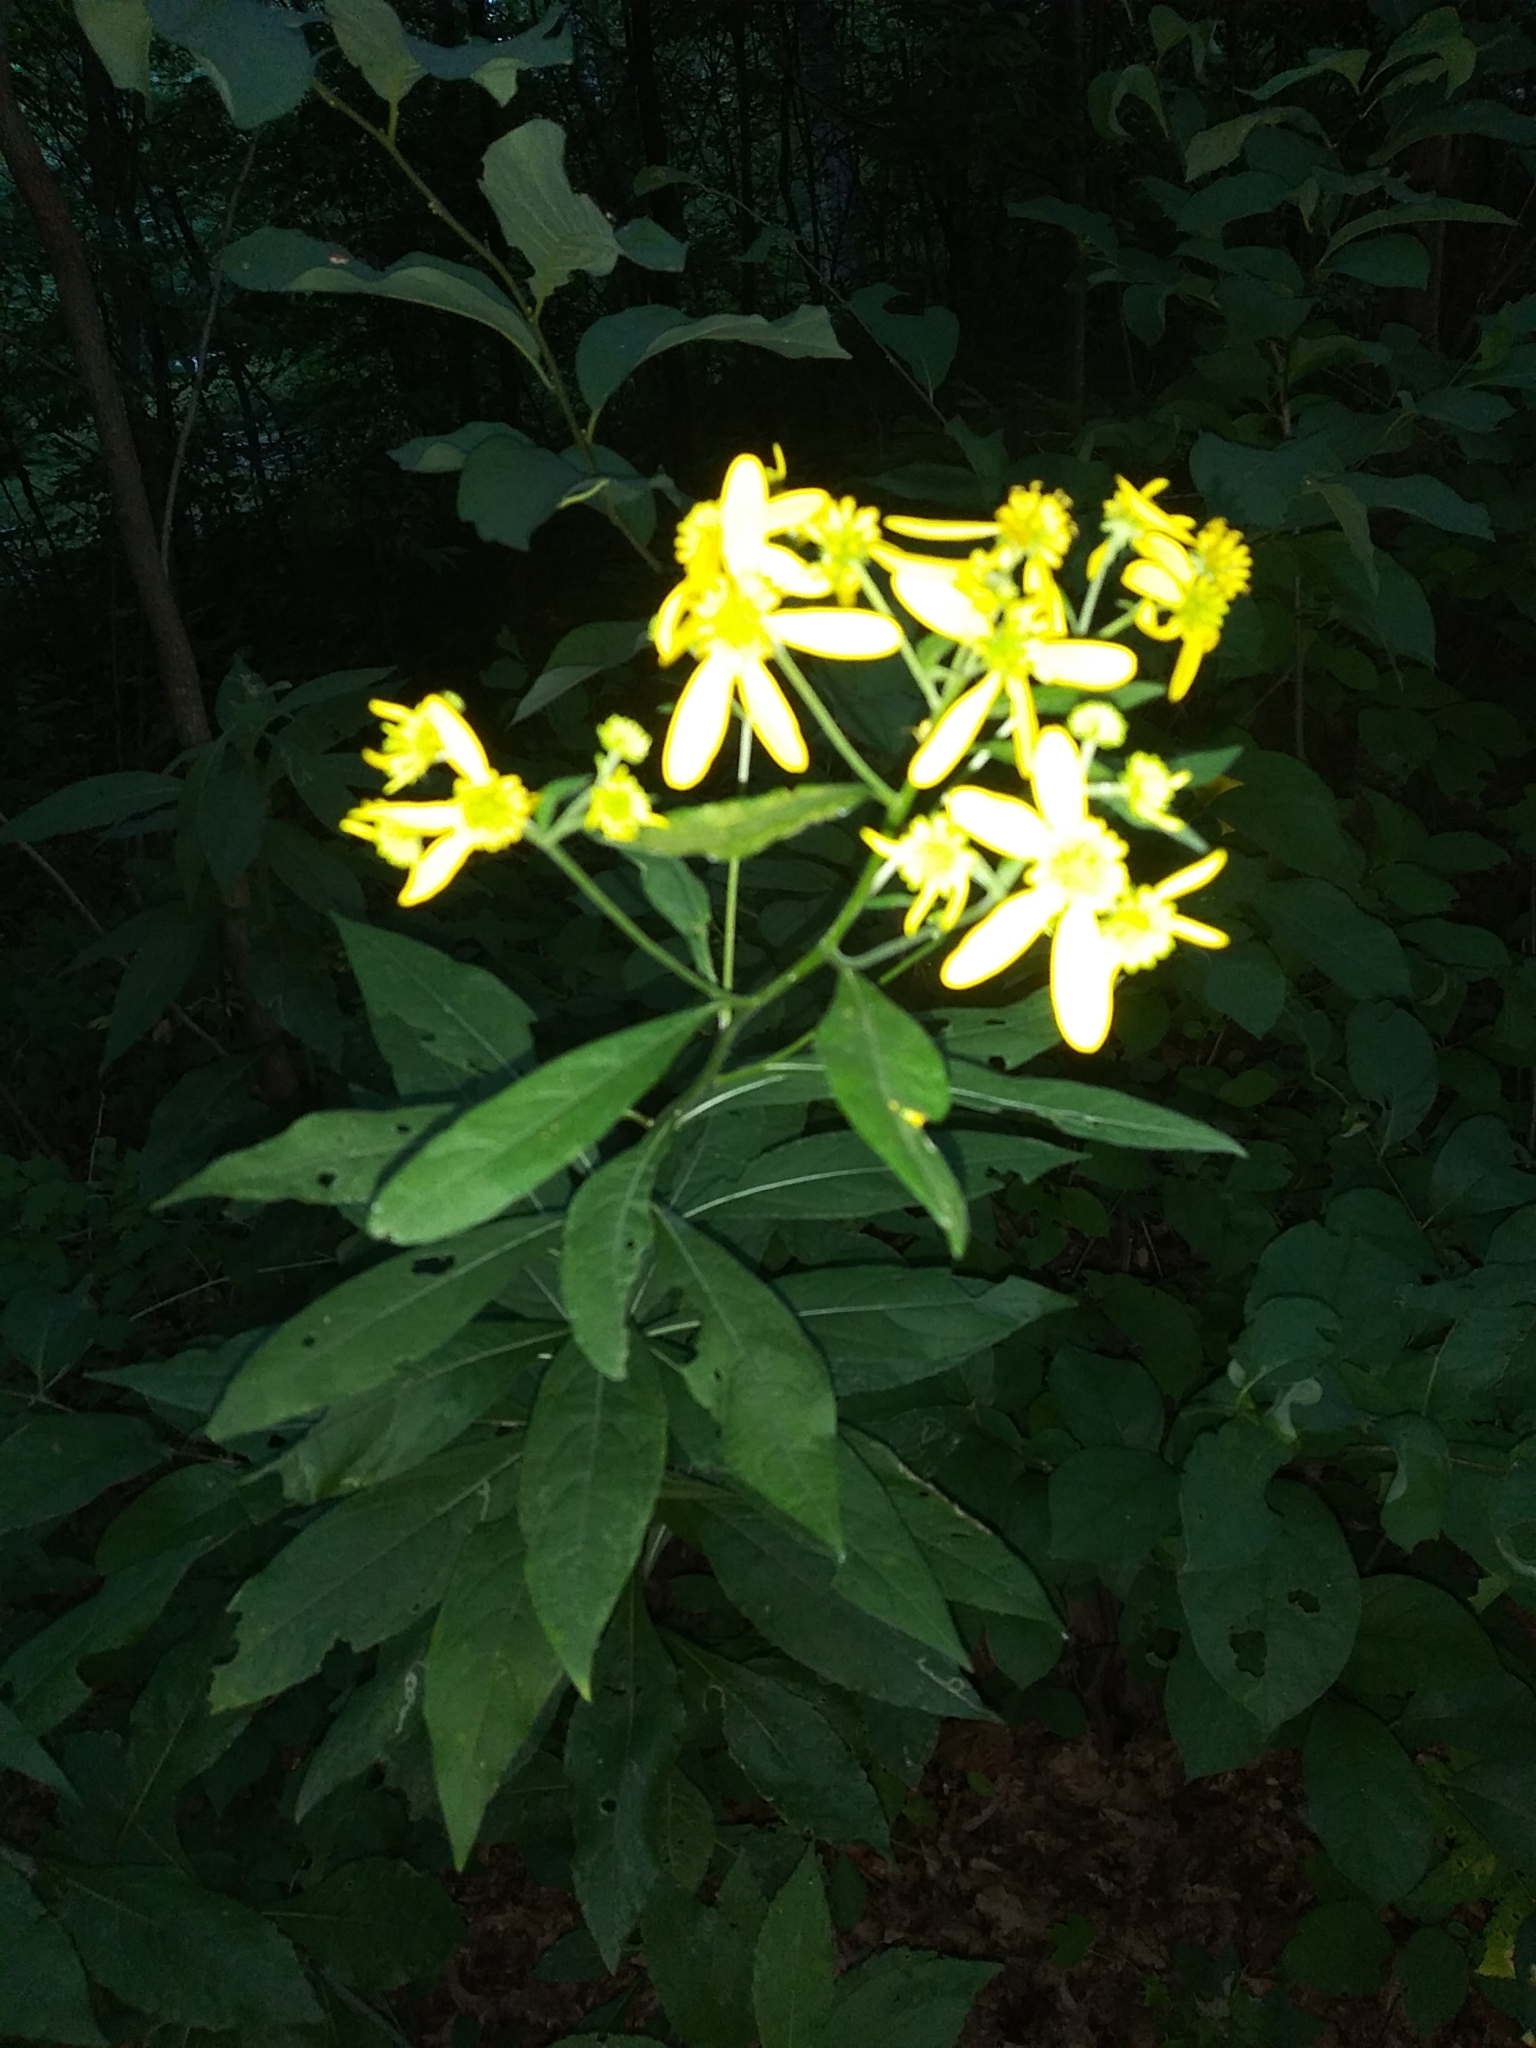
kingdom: Plantae
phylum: Tracheophyta
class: Magnoliopsida
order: Asterales
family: Asteraceae
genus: Verbesina
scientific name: Verbesina alternifolia
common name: Wingstem
